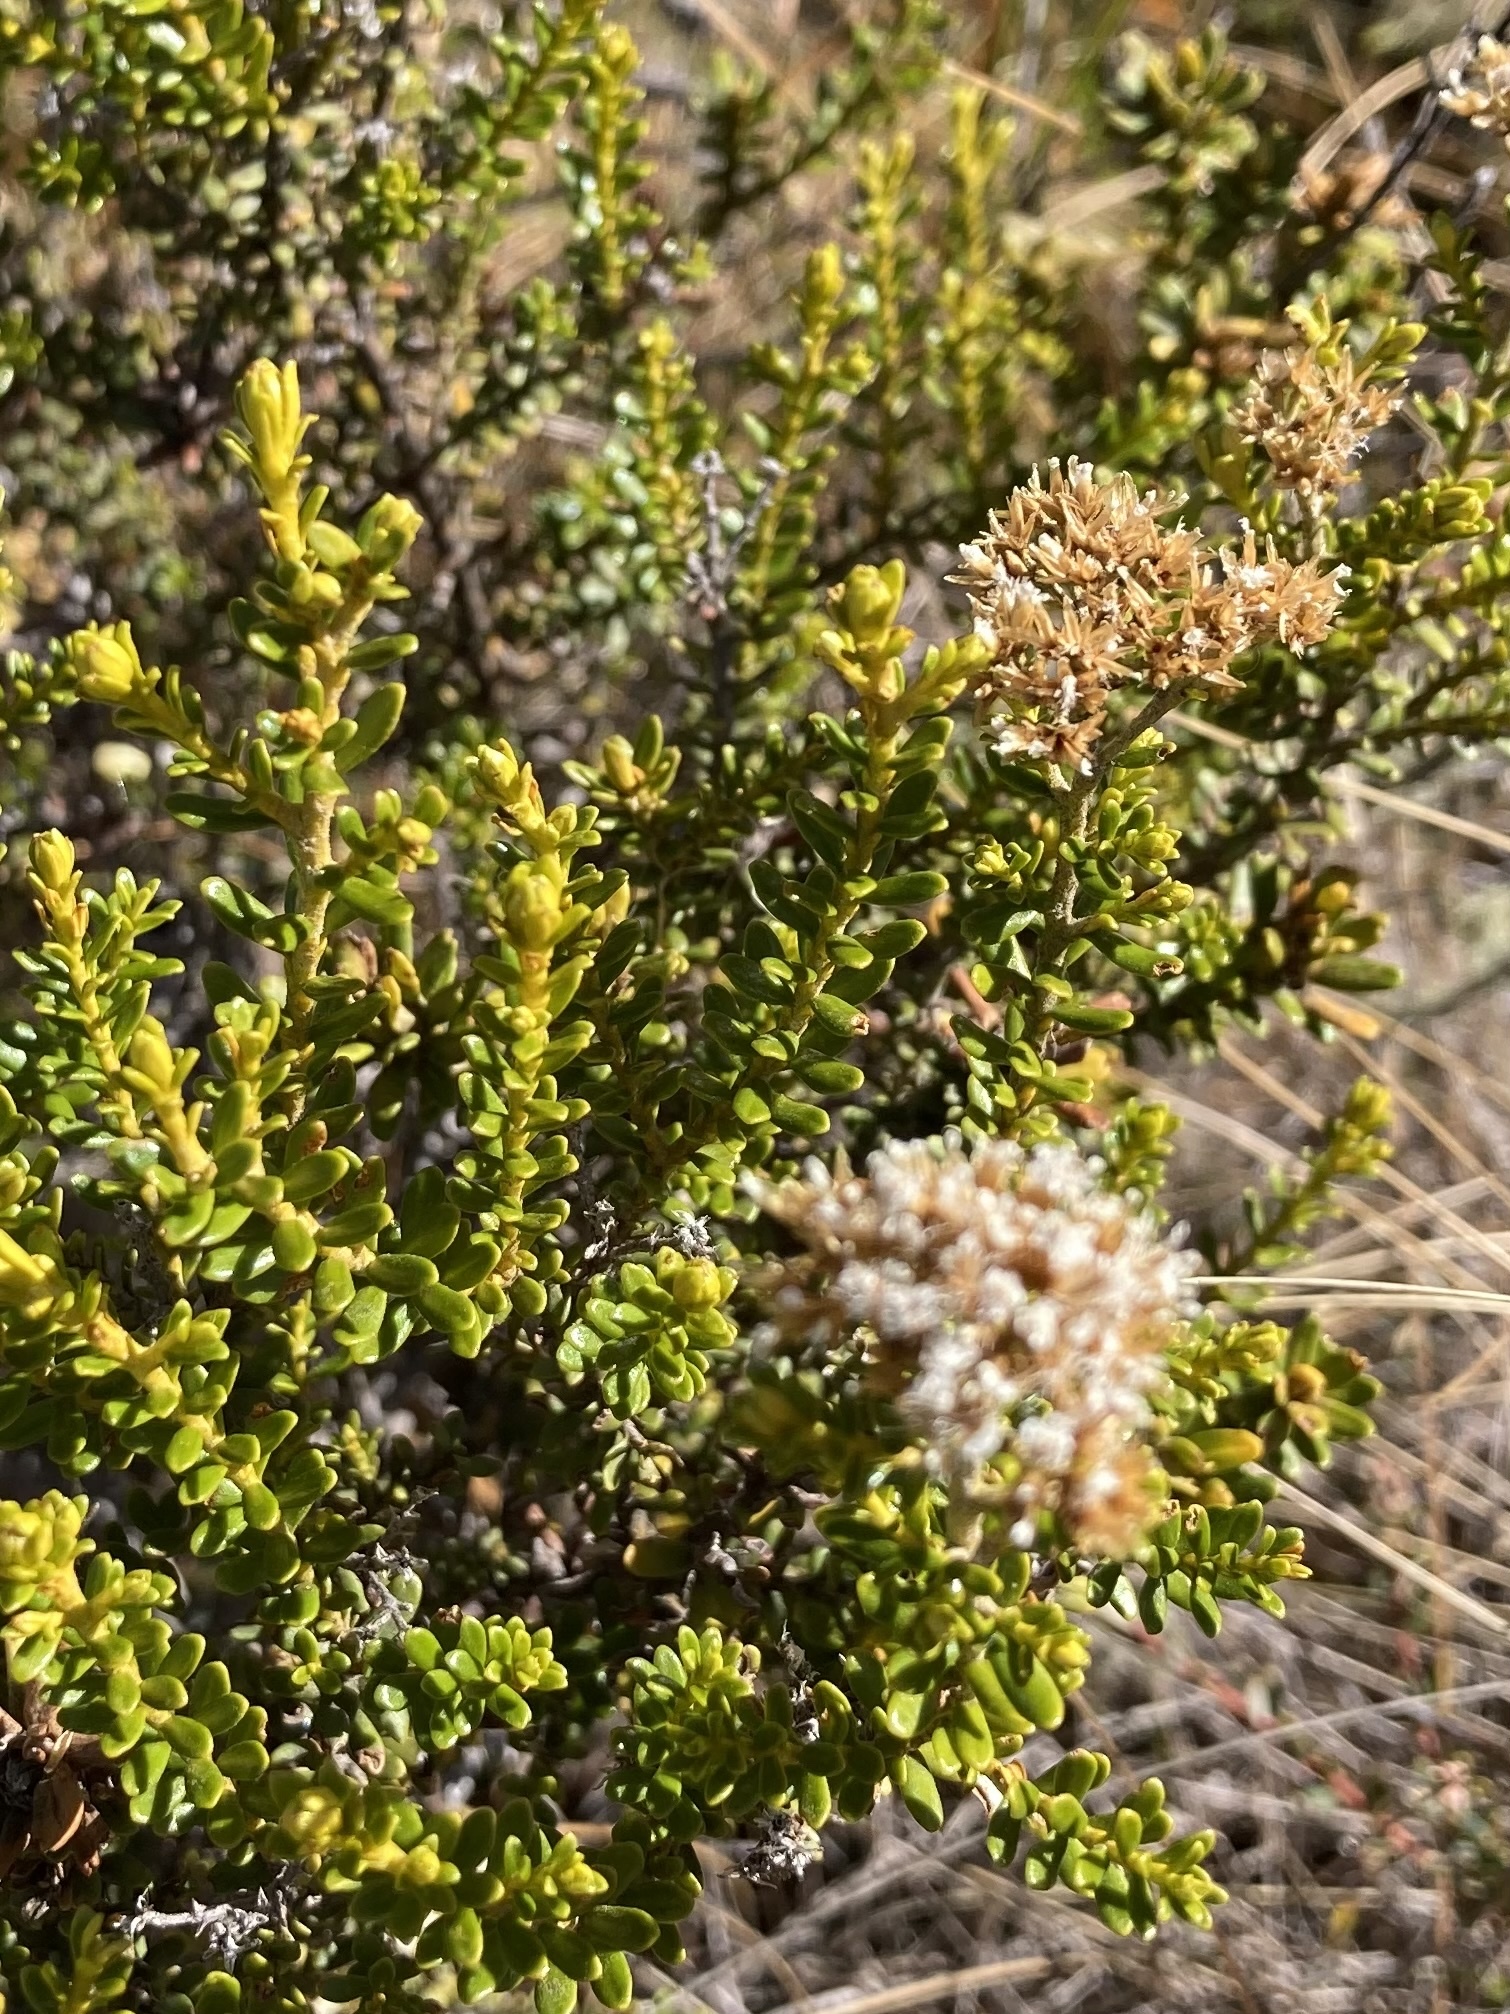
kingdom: Plantae
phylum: Tracheophyta
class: Magnoliopsida
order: Asterales
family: Asteraceae
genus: Ozothamnus
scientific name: Ozothamnus leptophyllus
